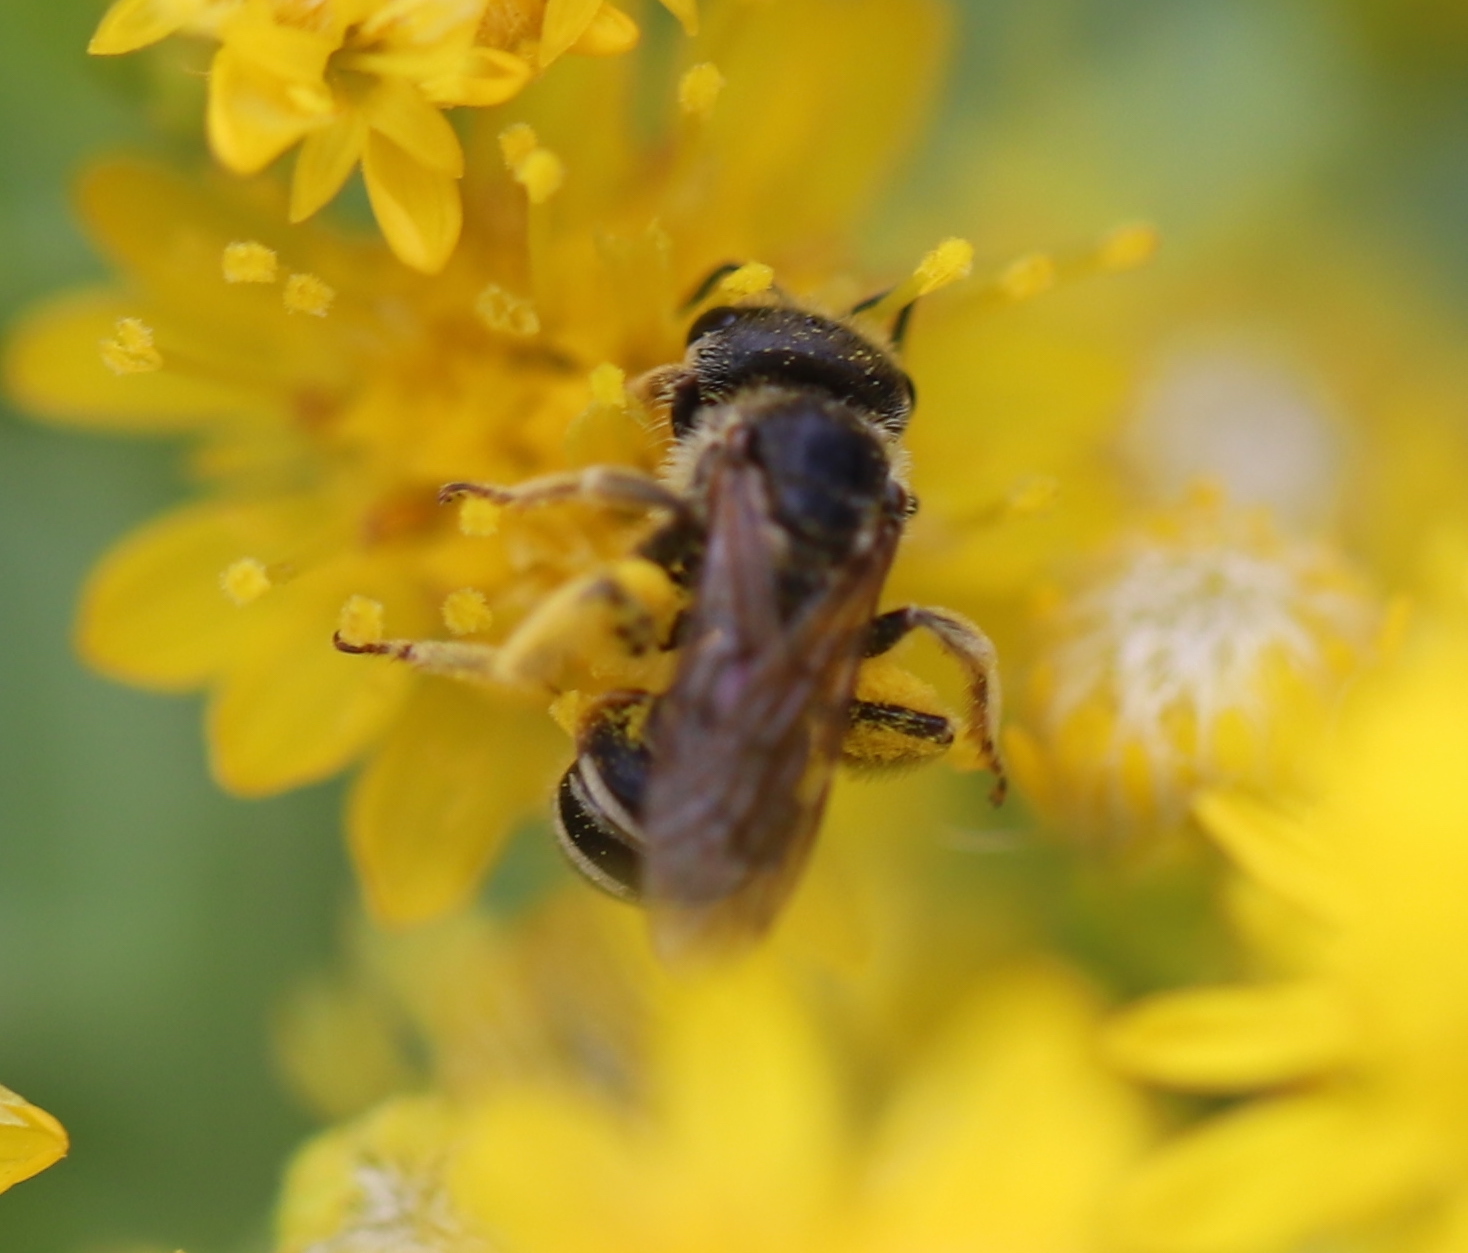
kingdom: Animalia
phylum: Arthropoda
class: Insecta
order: Hymenoptera
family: Halictidae
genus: Halictus
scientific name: Halictus ligatus
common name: Ligated furrow bee
